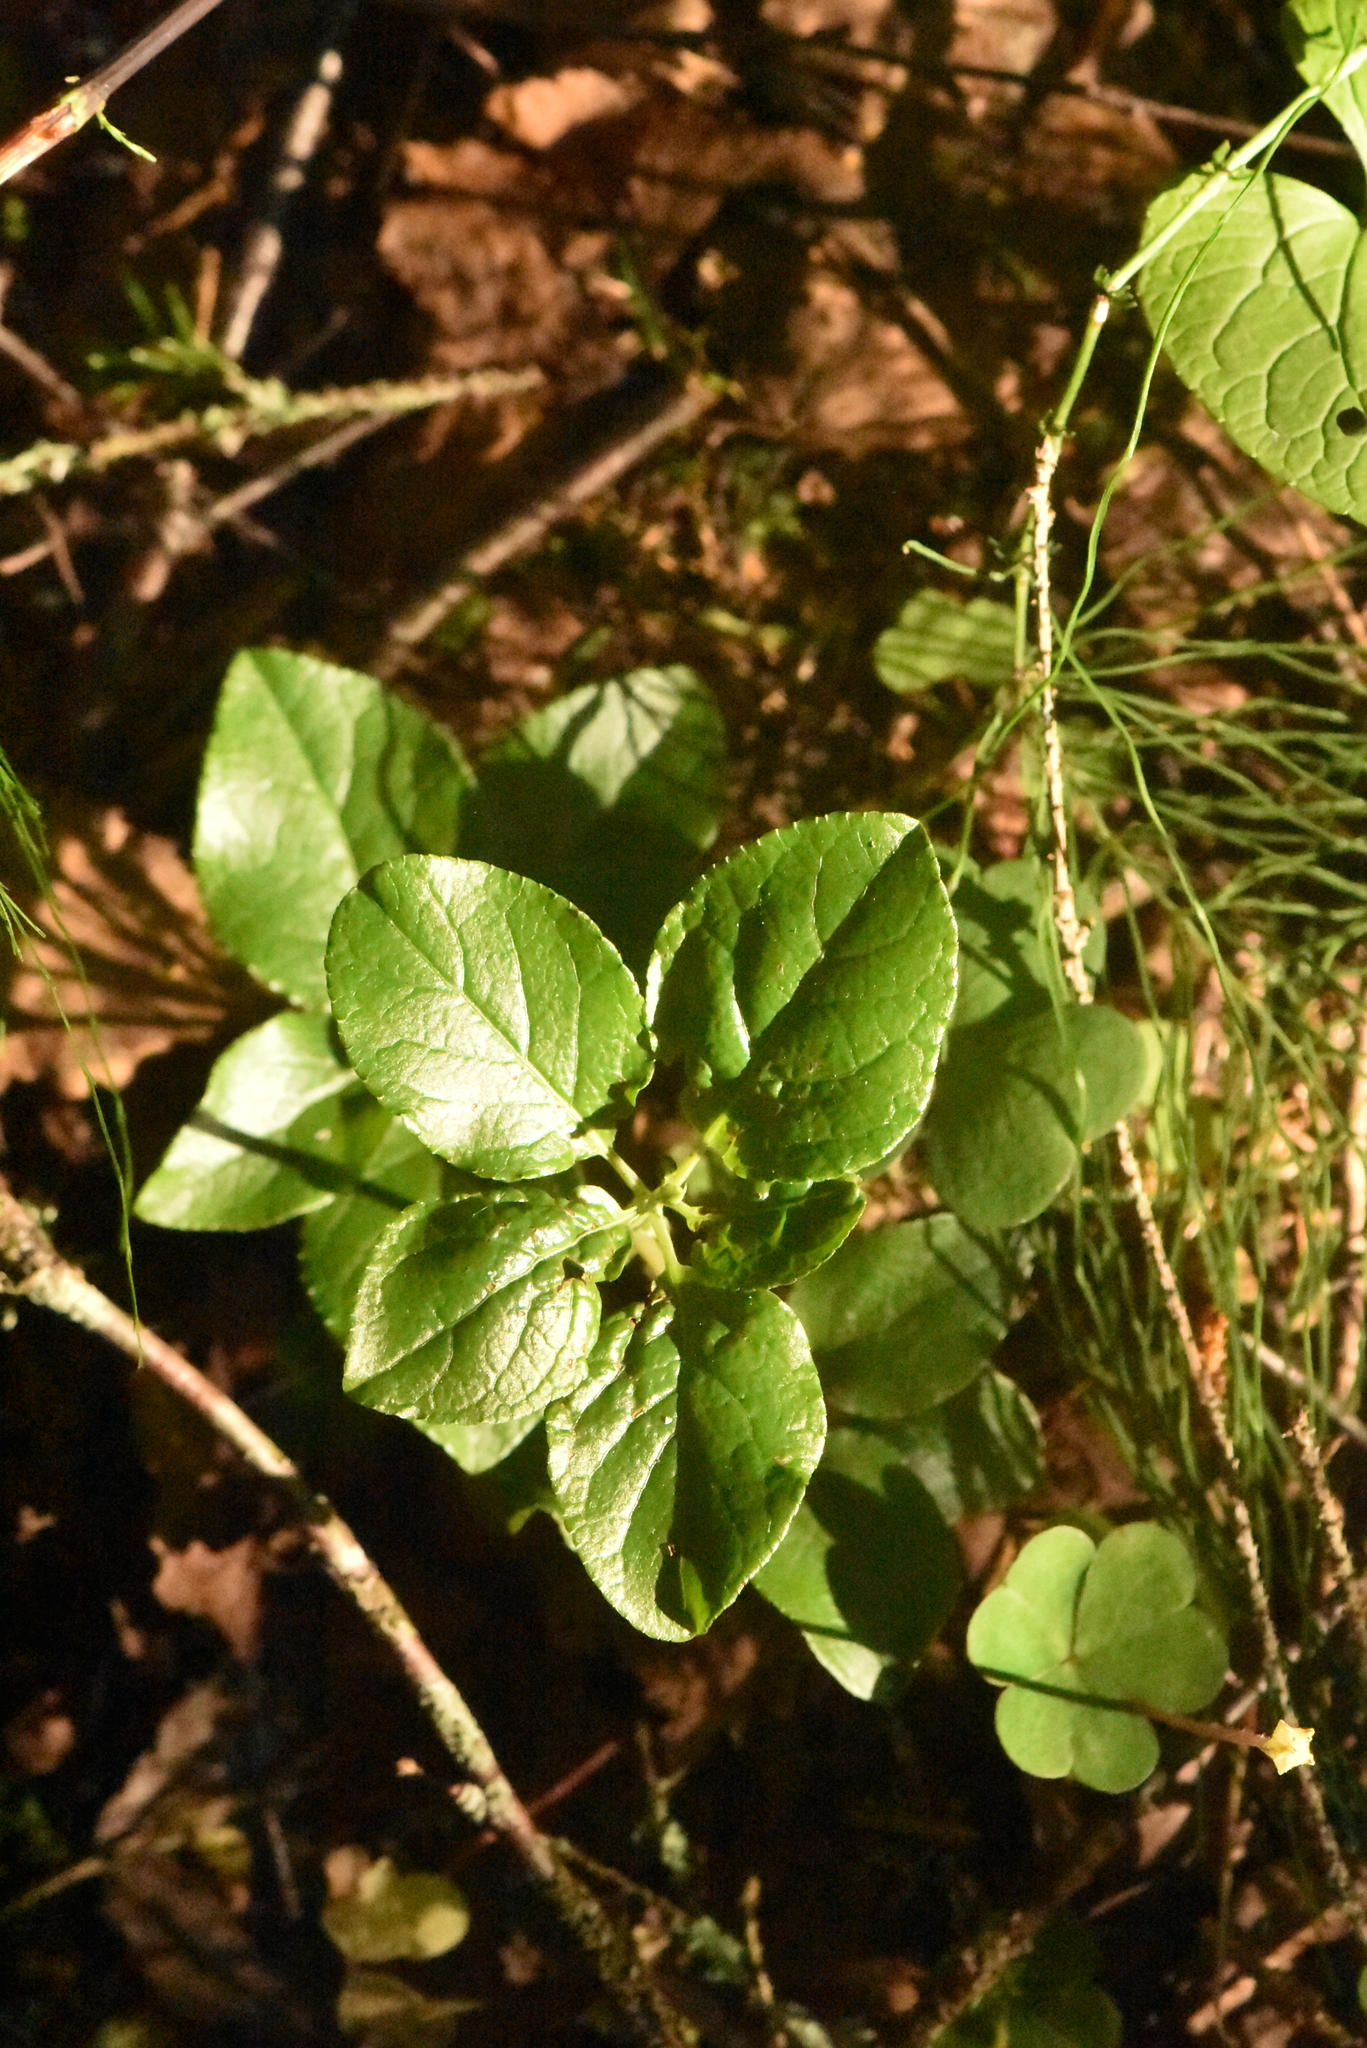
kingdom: Plantae
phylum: Tracheophyta
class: Magnoliopsida
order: Ericales
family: Ericaceae
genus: Orthilia
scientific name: Orthilia secunda
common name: One-sided orthilia
